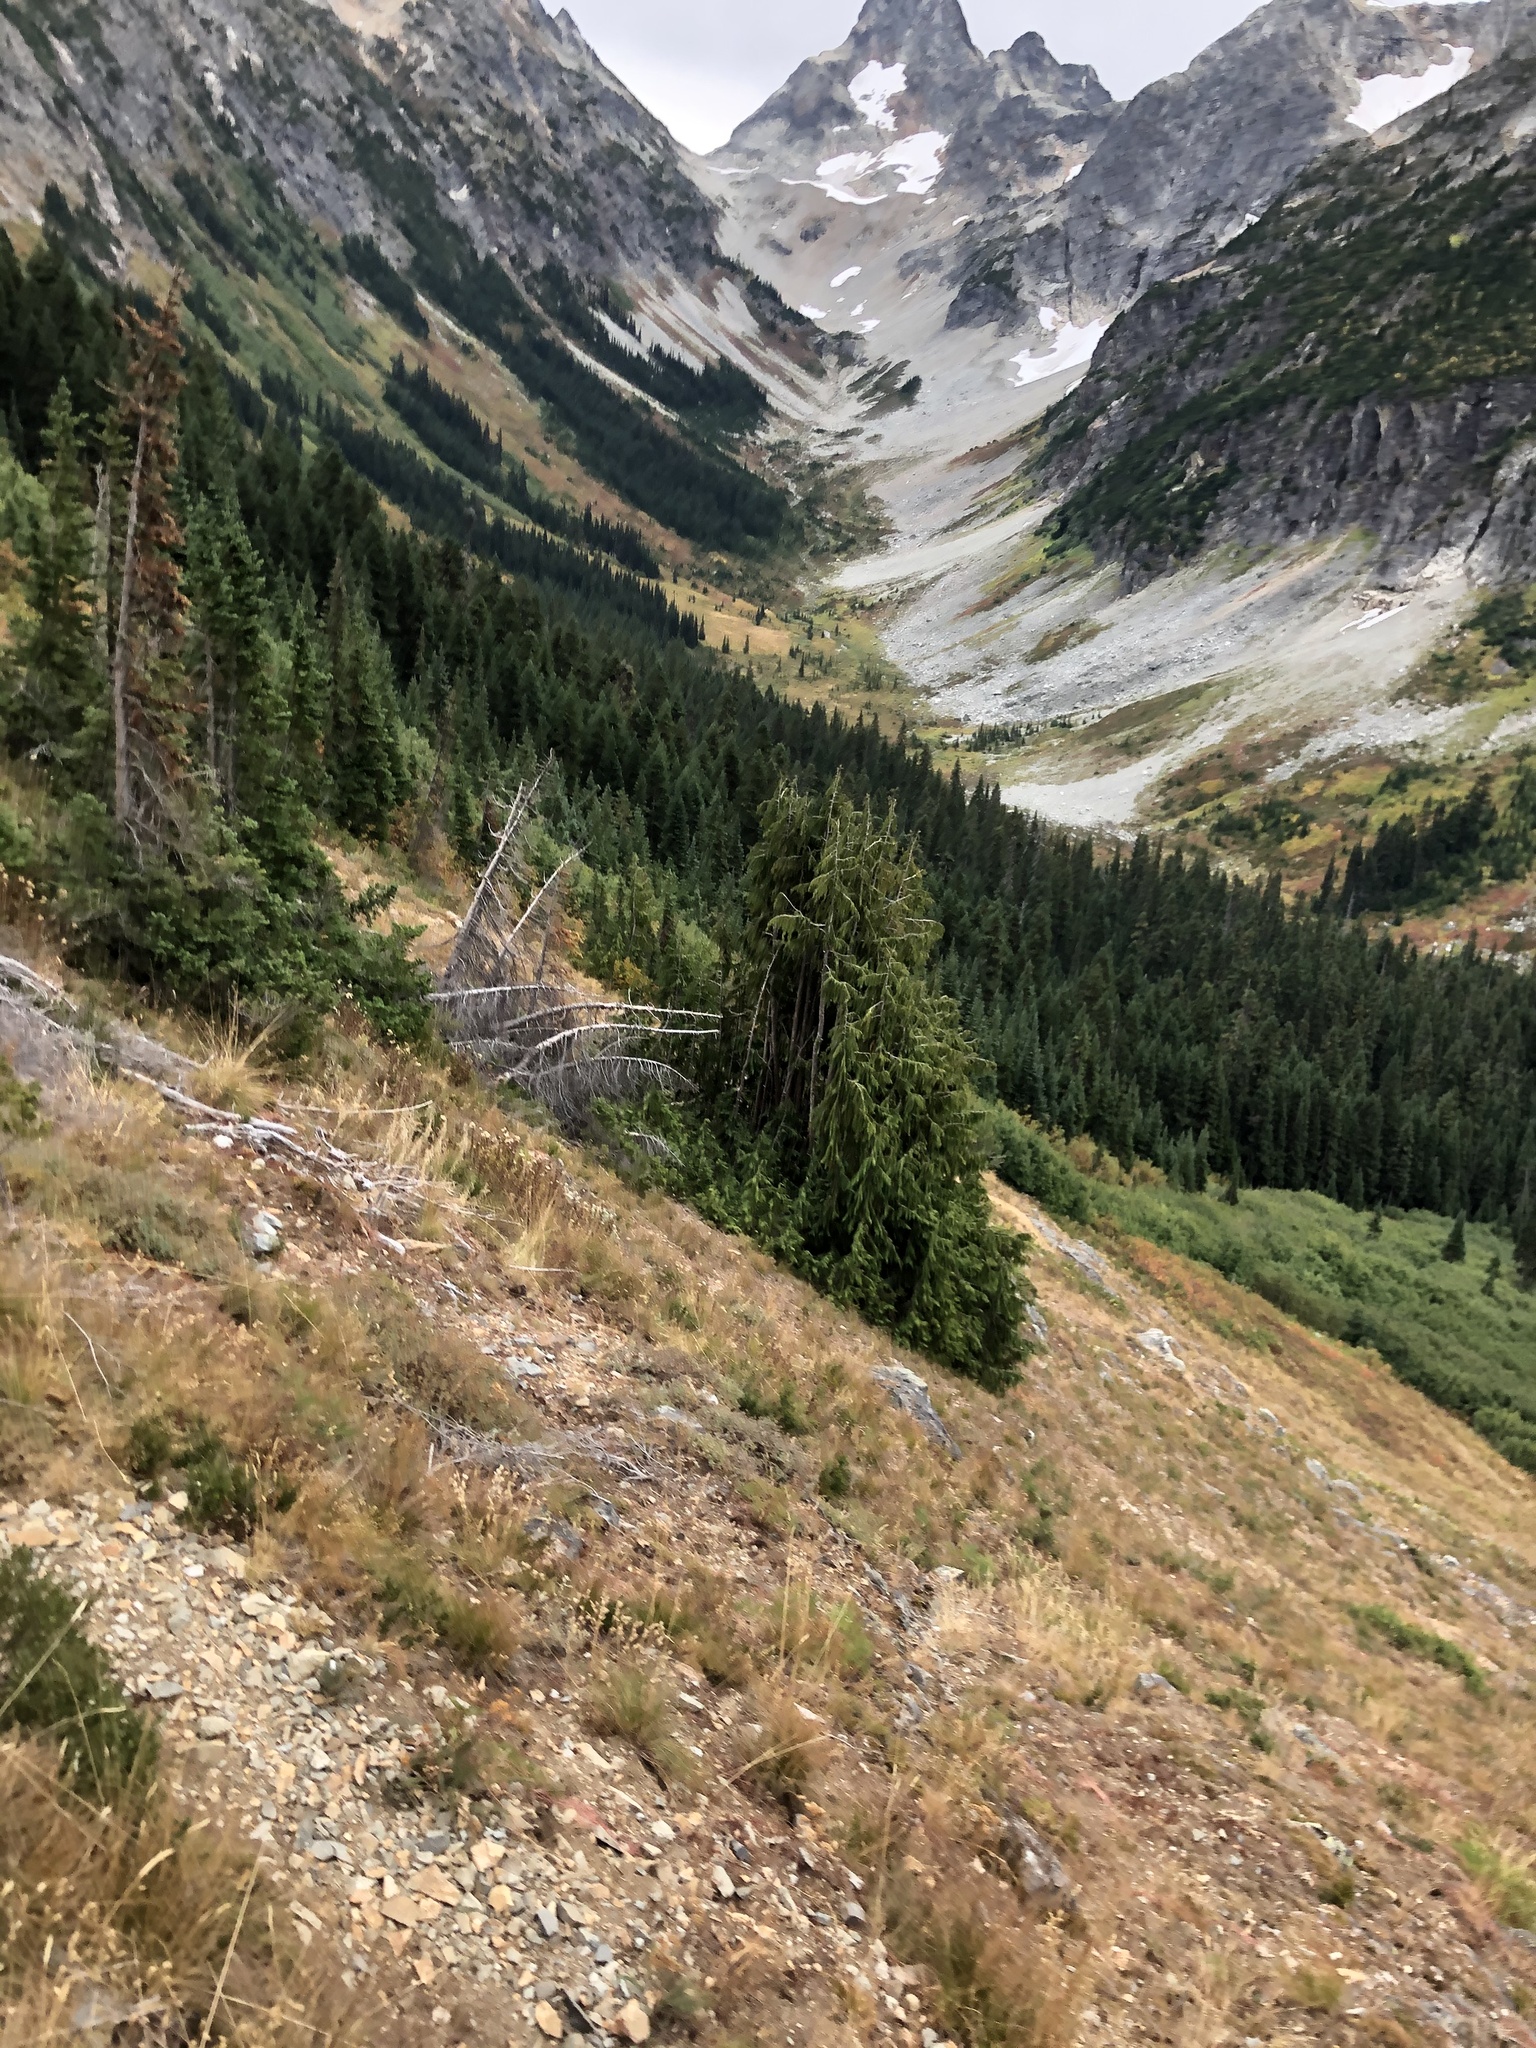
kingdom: Plantae
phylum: Tracheophyta
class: Pinopsida
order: Pinales
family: Cupressaceae
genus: Xanthocyparis
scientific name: Xanthocyparis nootkatensis
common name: Nootka cypress
